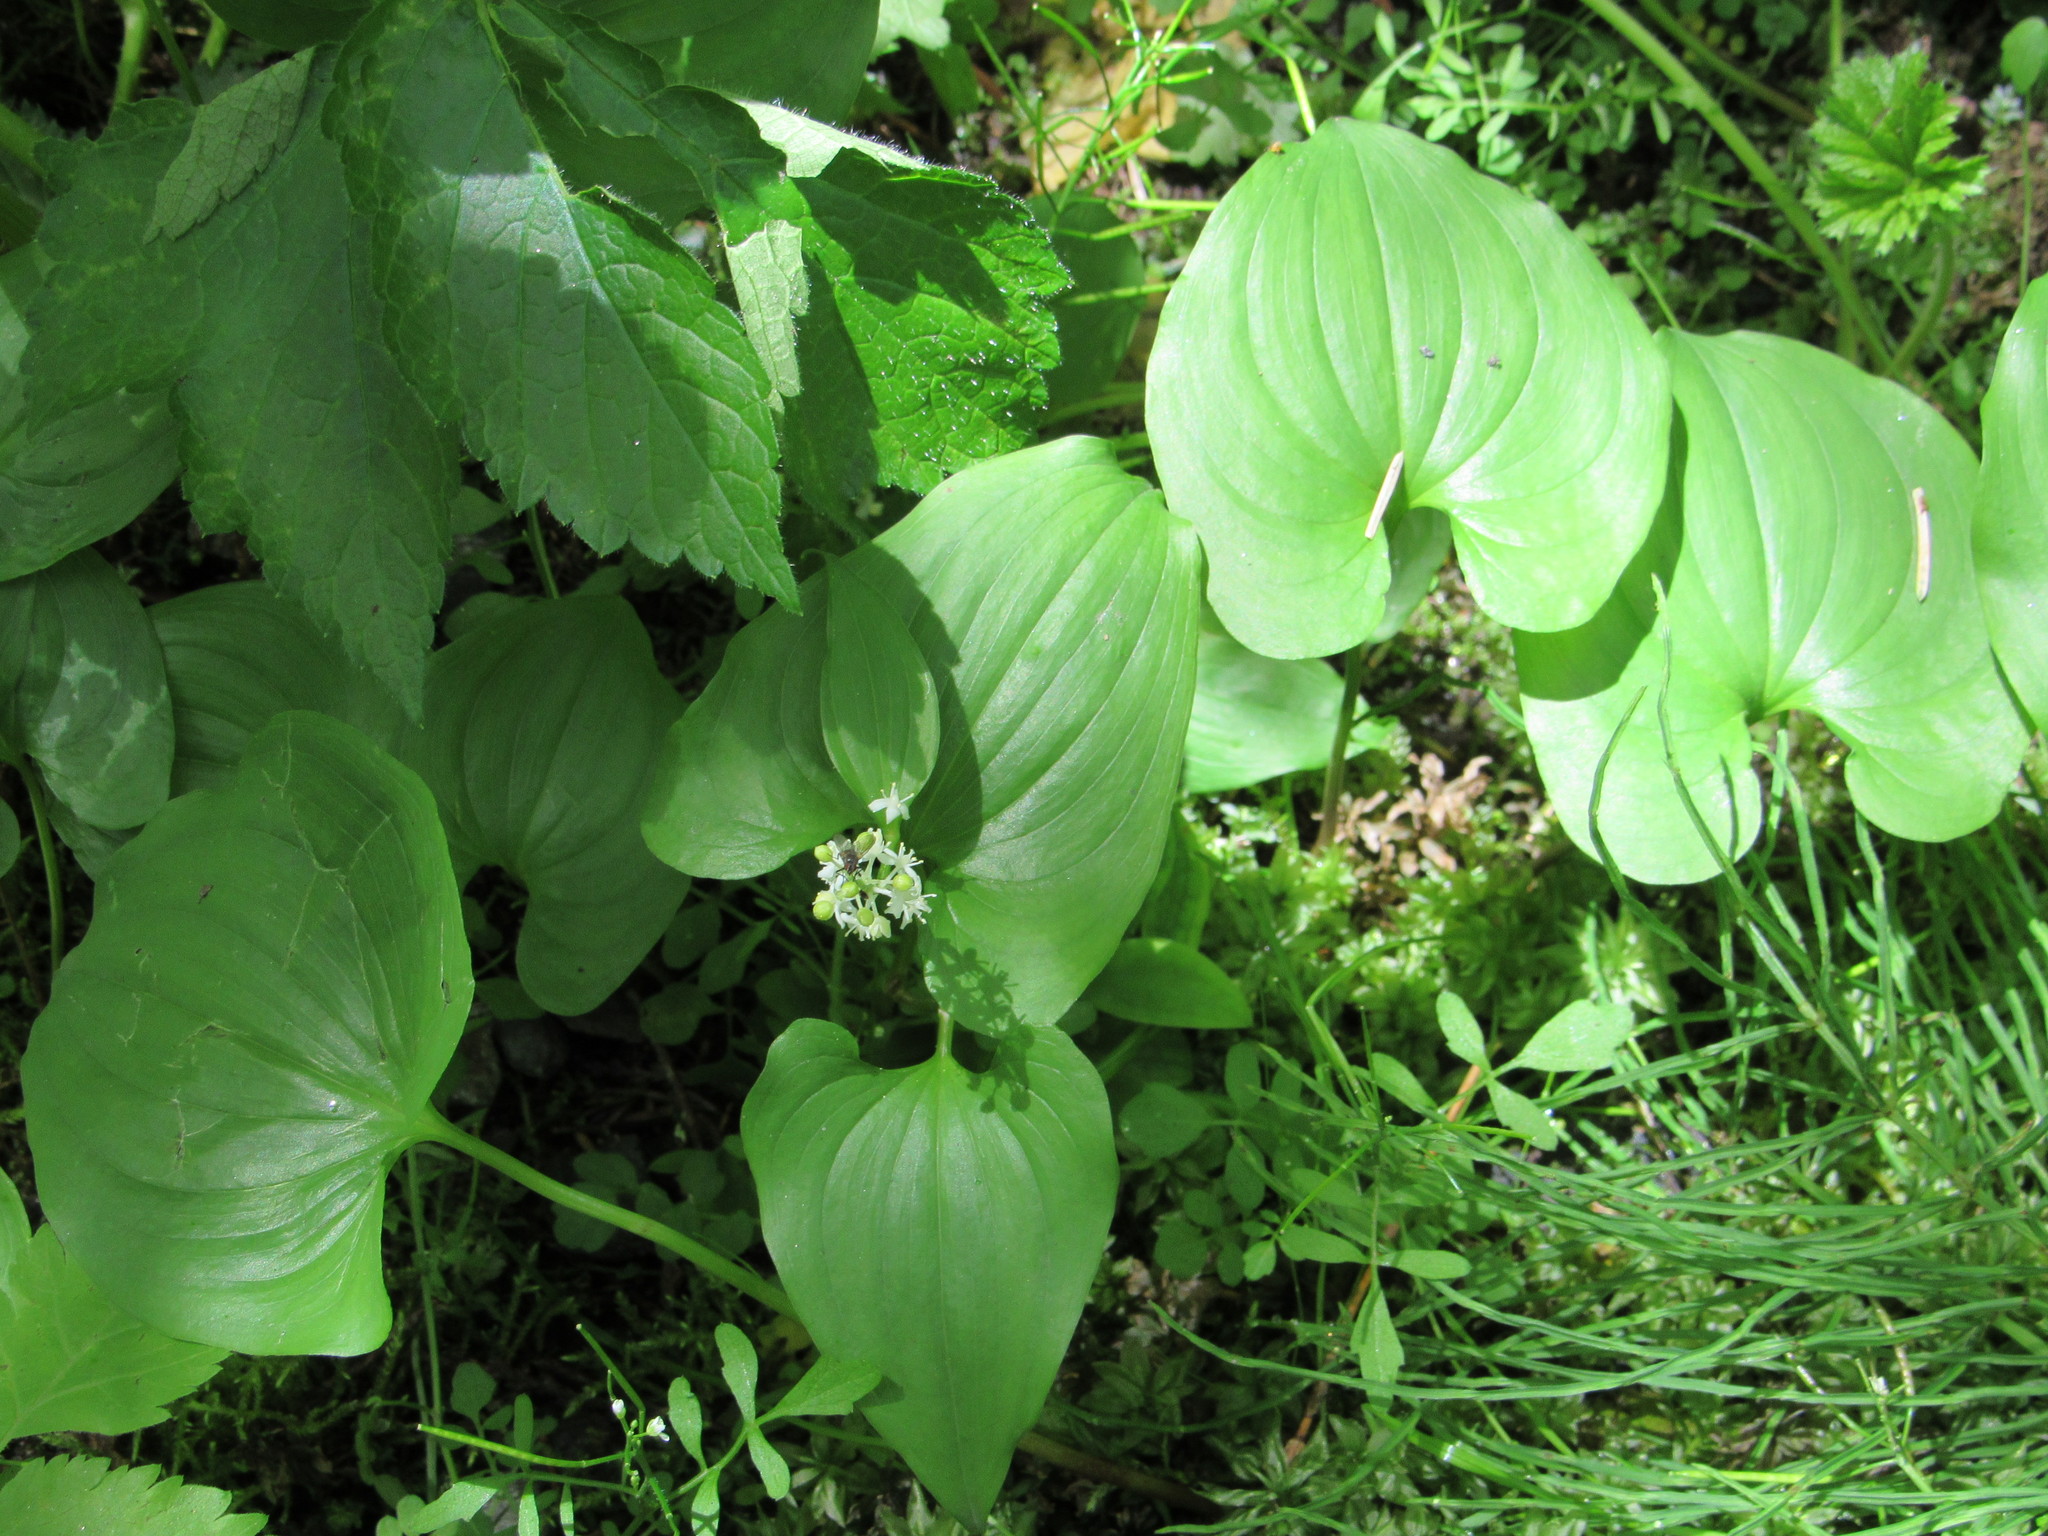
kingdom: Plantae
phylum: Tracheophyta
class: Liliopsida
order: Asparagales
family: Asparagaceae
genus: Maianthemum
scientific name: Maianthemum dilatatum
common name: False lily-of-the-valley
